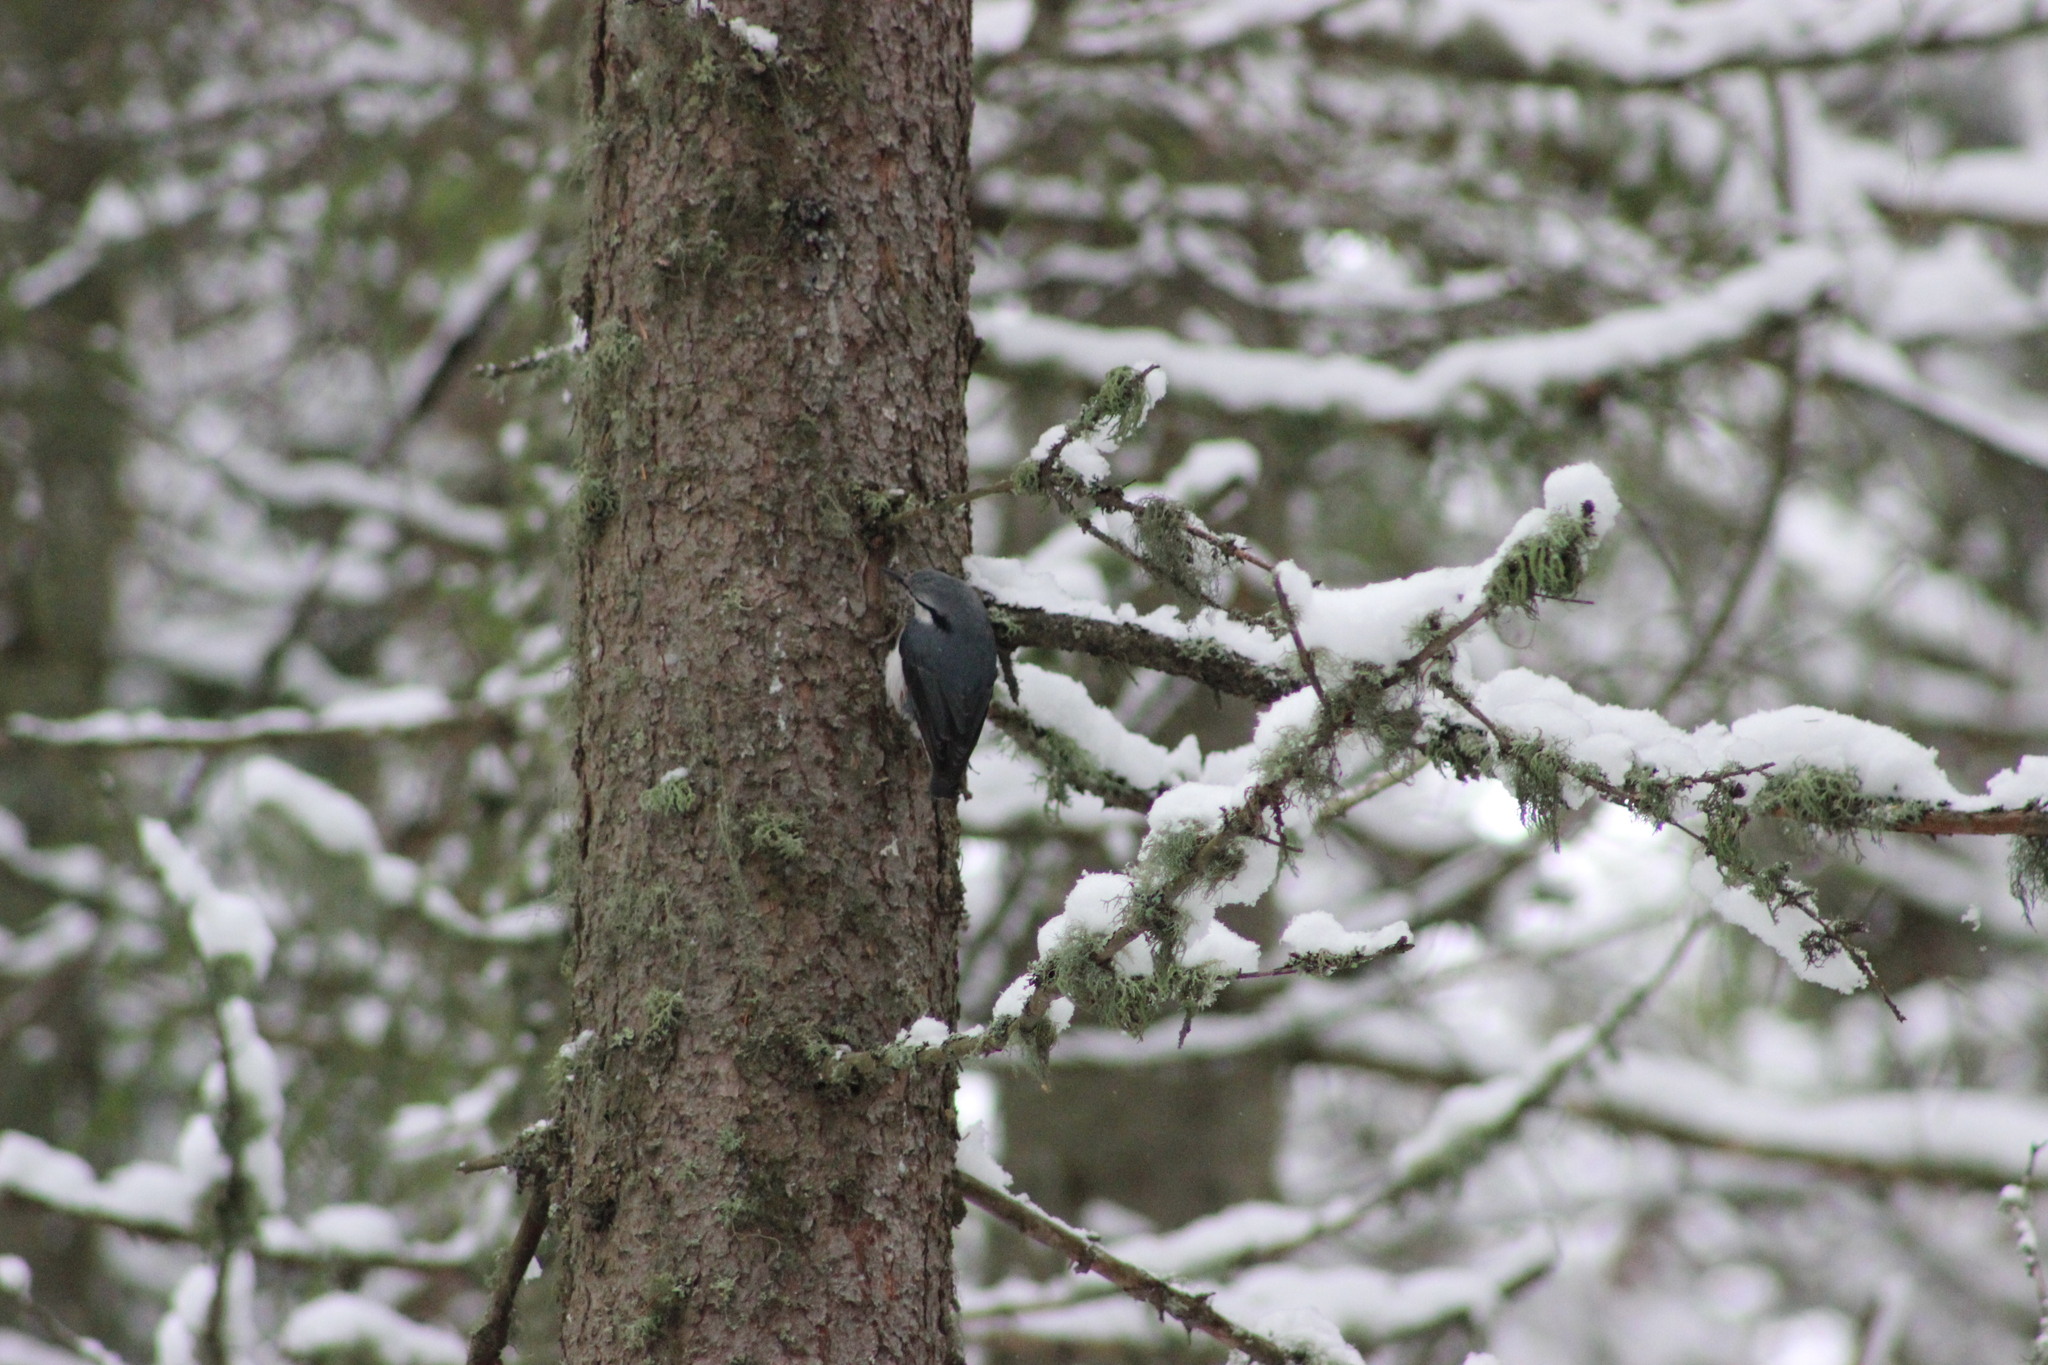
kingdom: Animalia
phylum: Chordata
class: Aves
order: Passeriformes
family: Sittidae
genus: Sitta
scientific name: Sitta europaea
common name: Eurasian nuthatch
